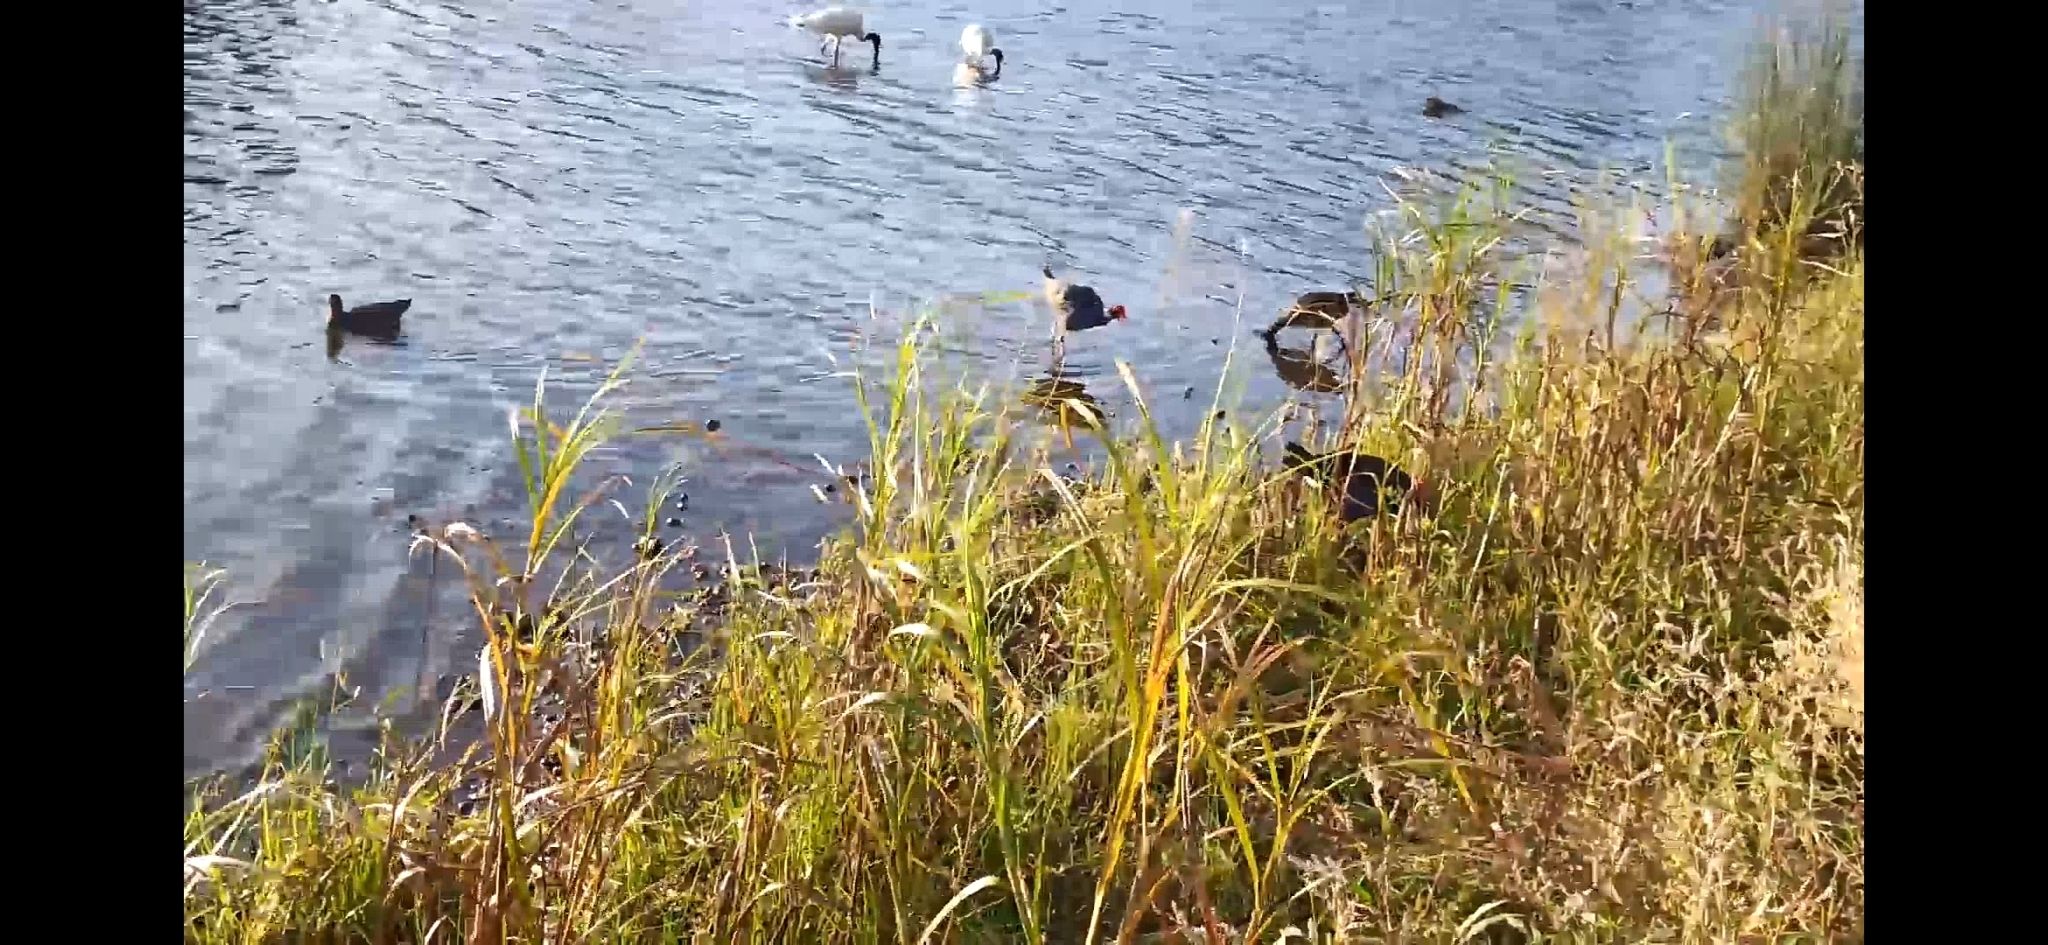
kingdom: Animalia
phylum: Chordata
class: Aves
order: Pelecaniformes
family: Threskiornithidae
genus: Threskiornis
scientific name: Threskiornis molucca
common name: Australian white ibis
